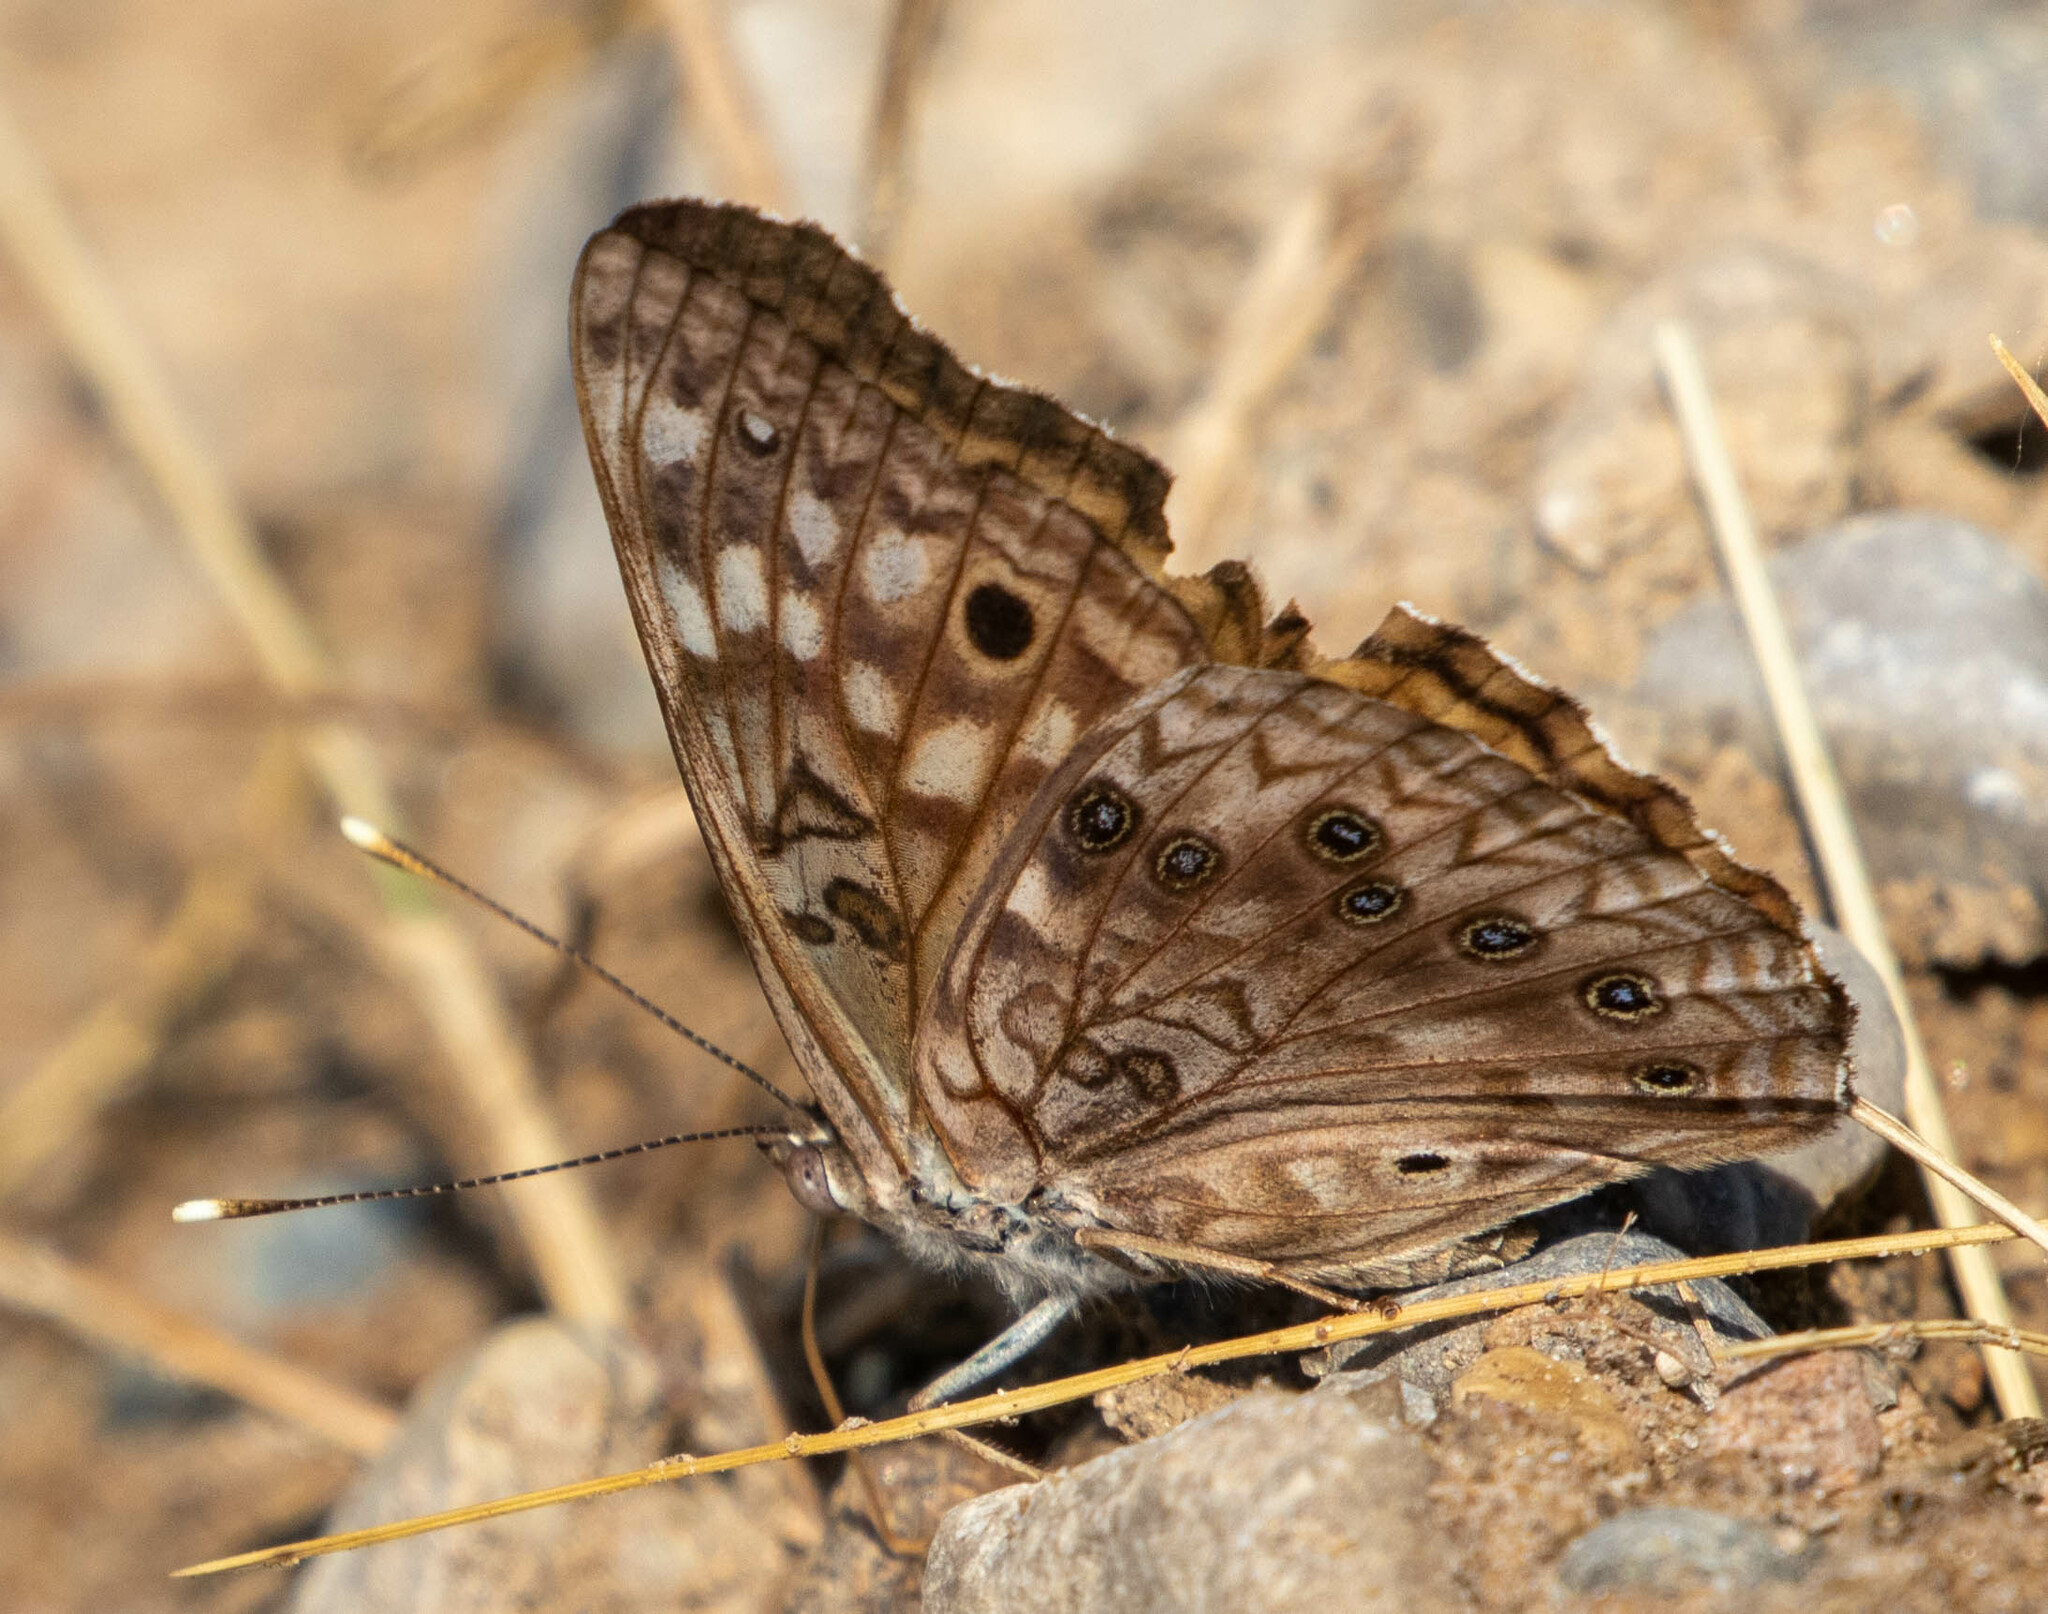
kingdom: Animalia
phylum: Arthropoda
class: Insecta
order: Lepidoptera
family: Nymphalidae
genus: Asterocampa
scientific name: Asterocampa celtis
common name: Hackberry emperor
